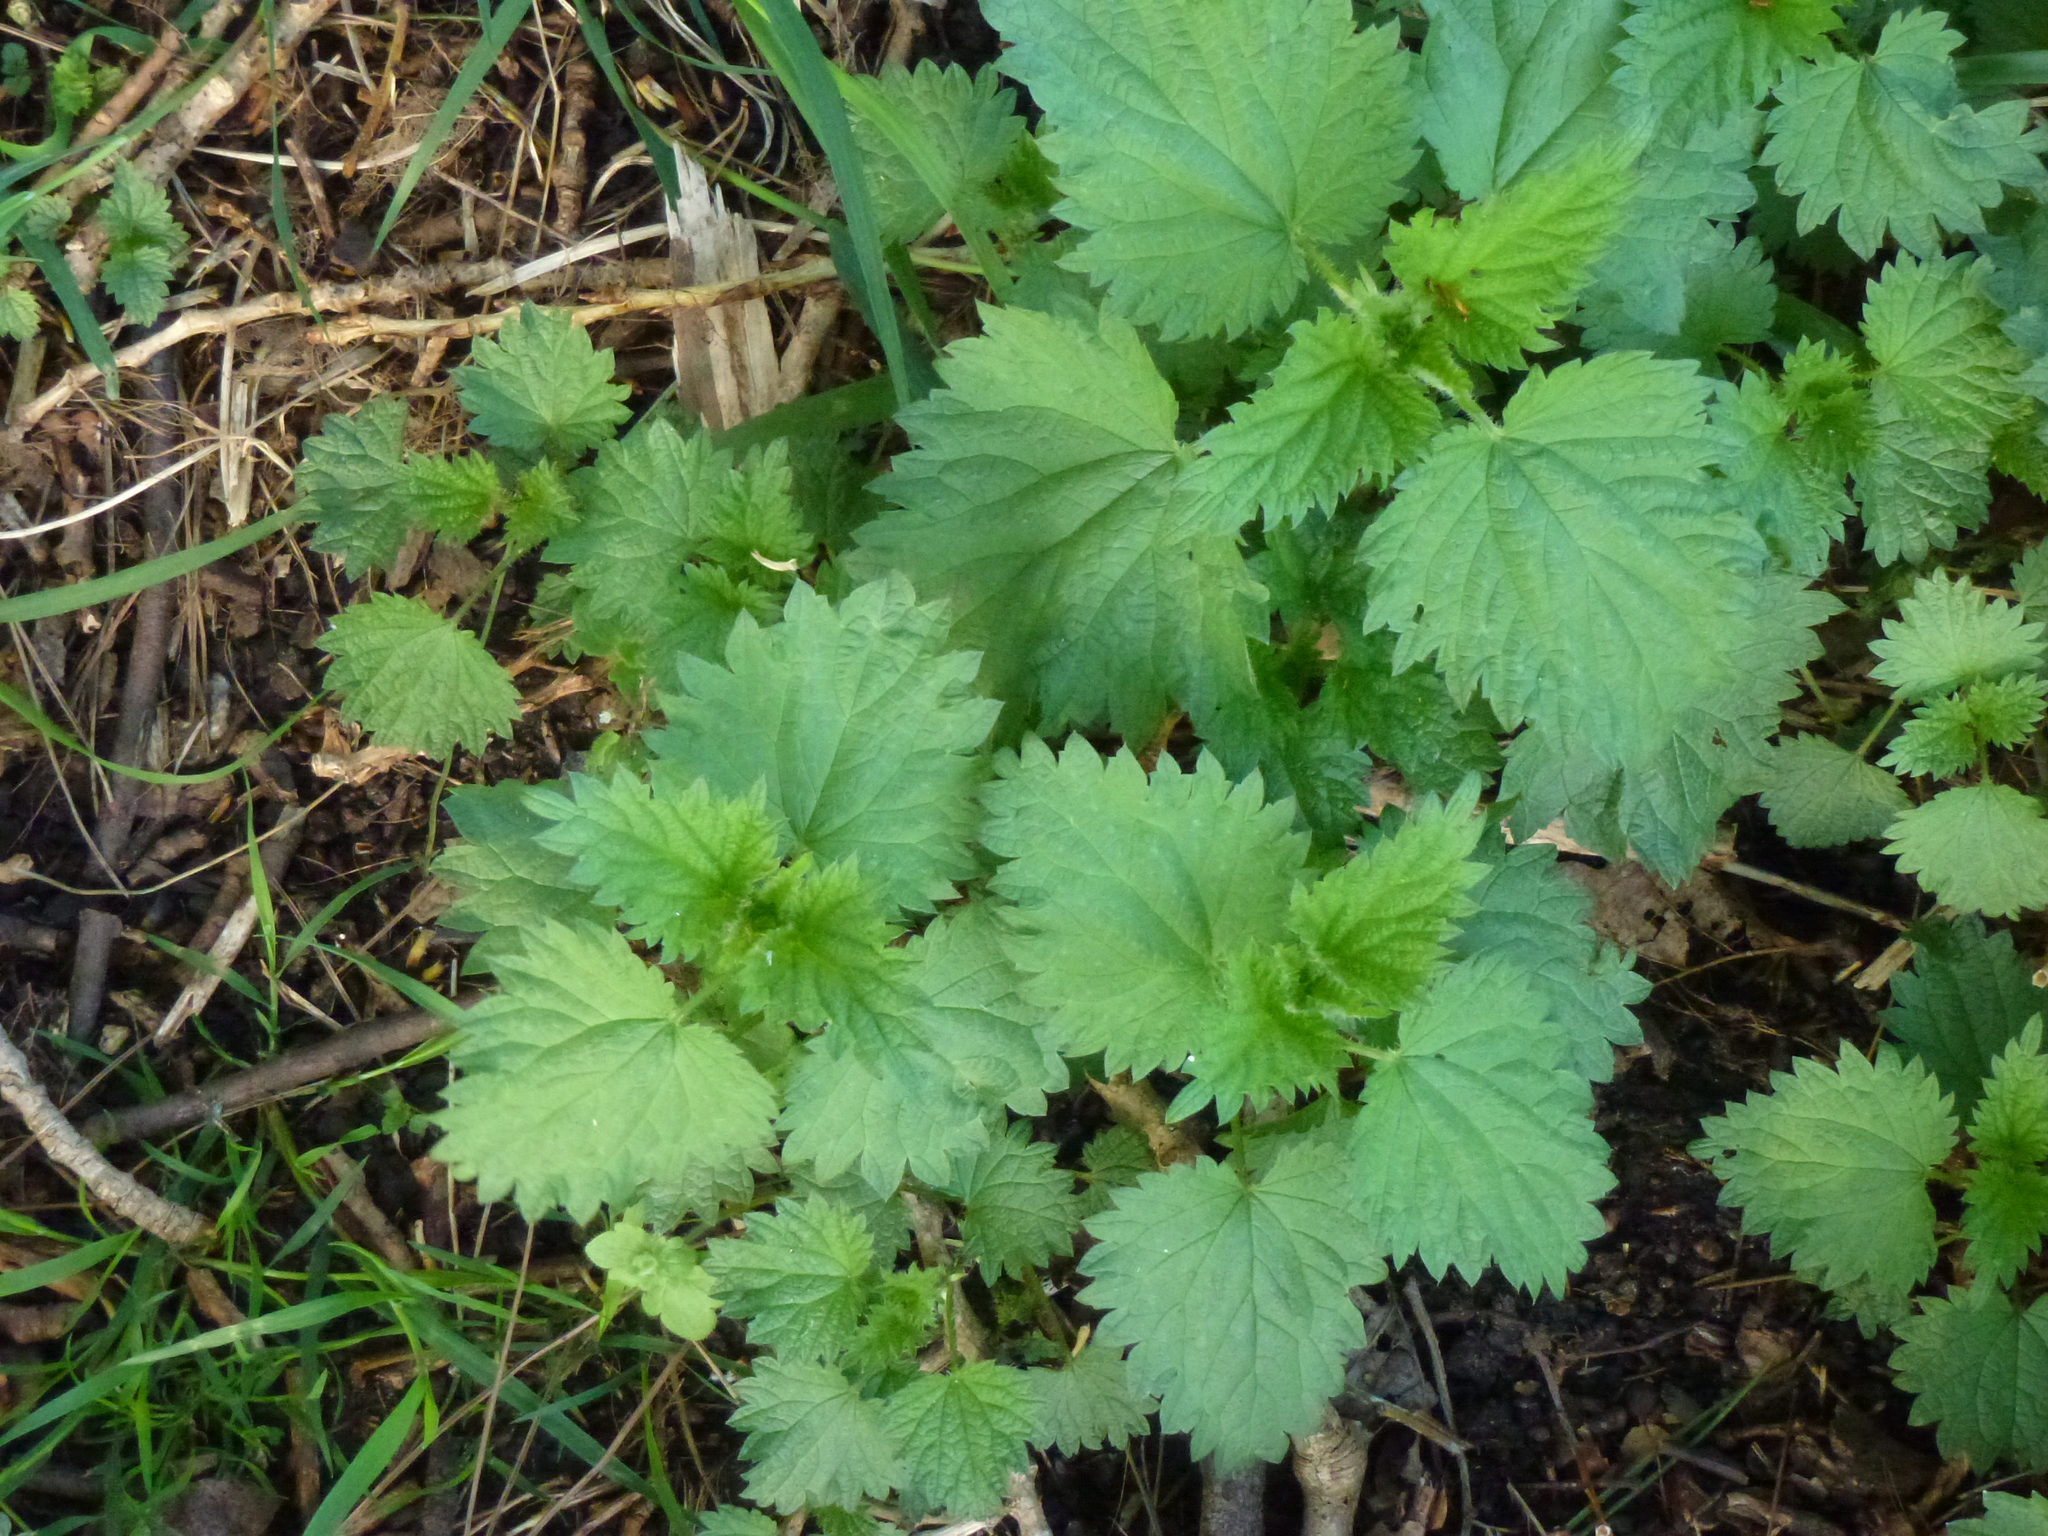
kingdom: Plantae
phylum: Tracheophyta
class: Magnoliopsida
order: Rosales
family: Urticaceae
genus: Urtica
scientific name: Urtica dioica
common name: Common nettle
